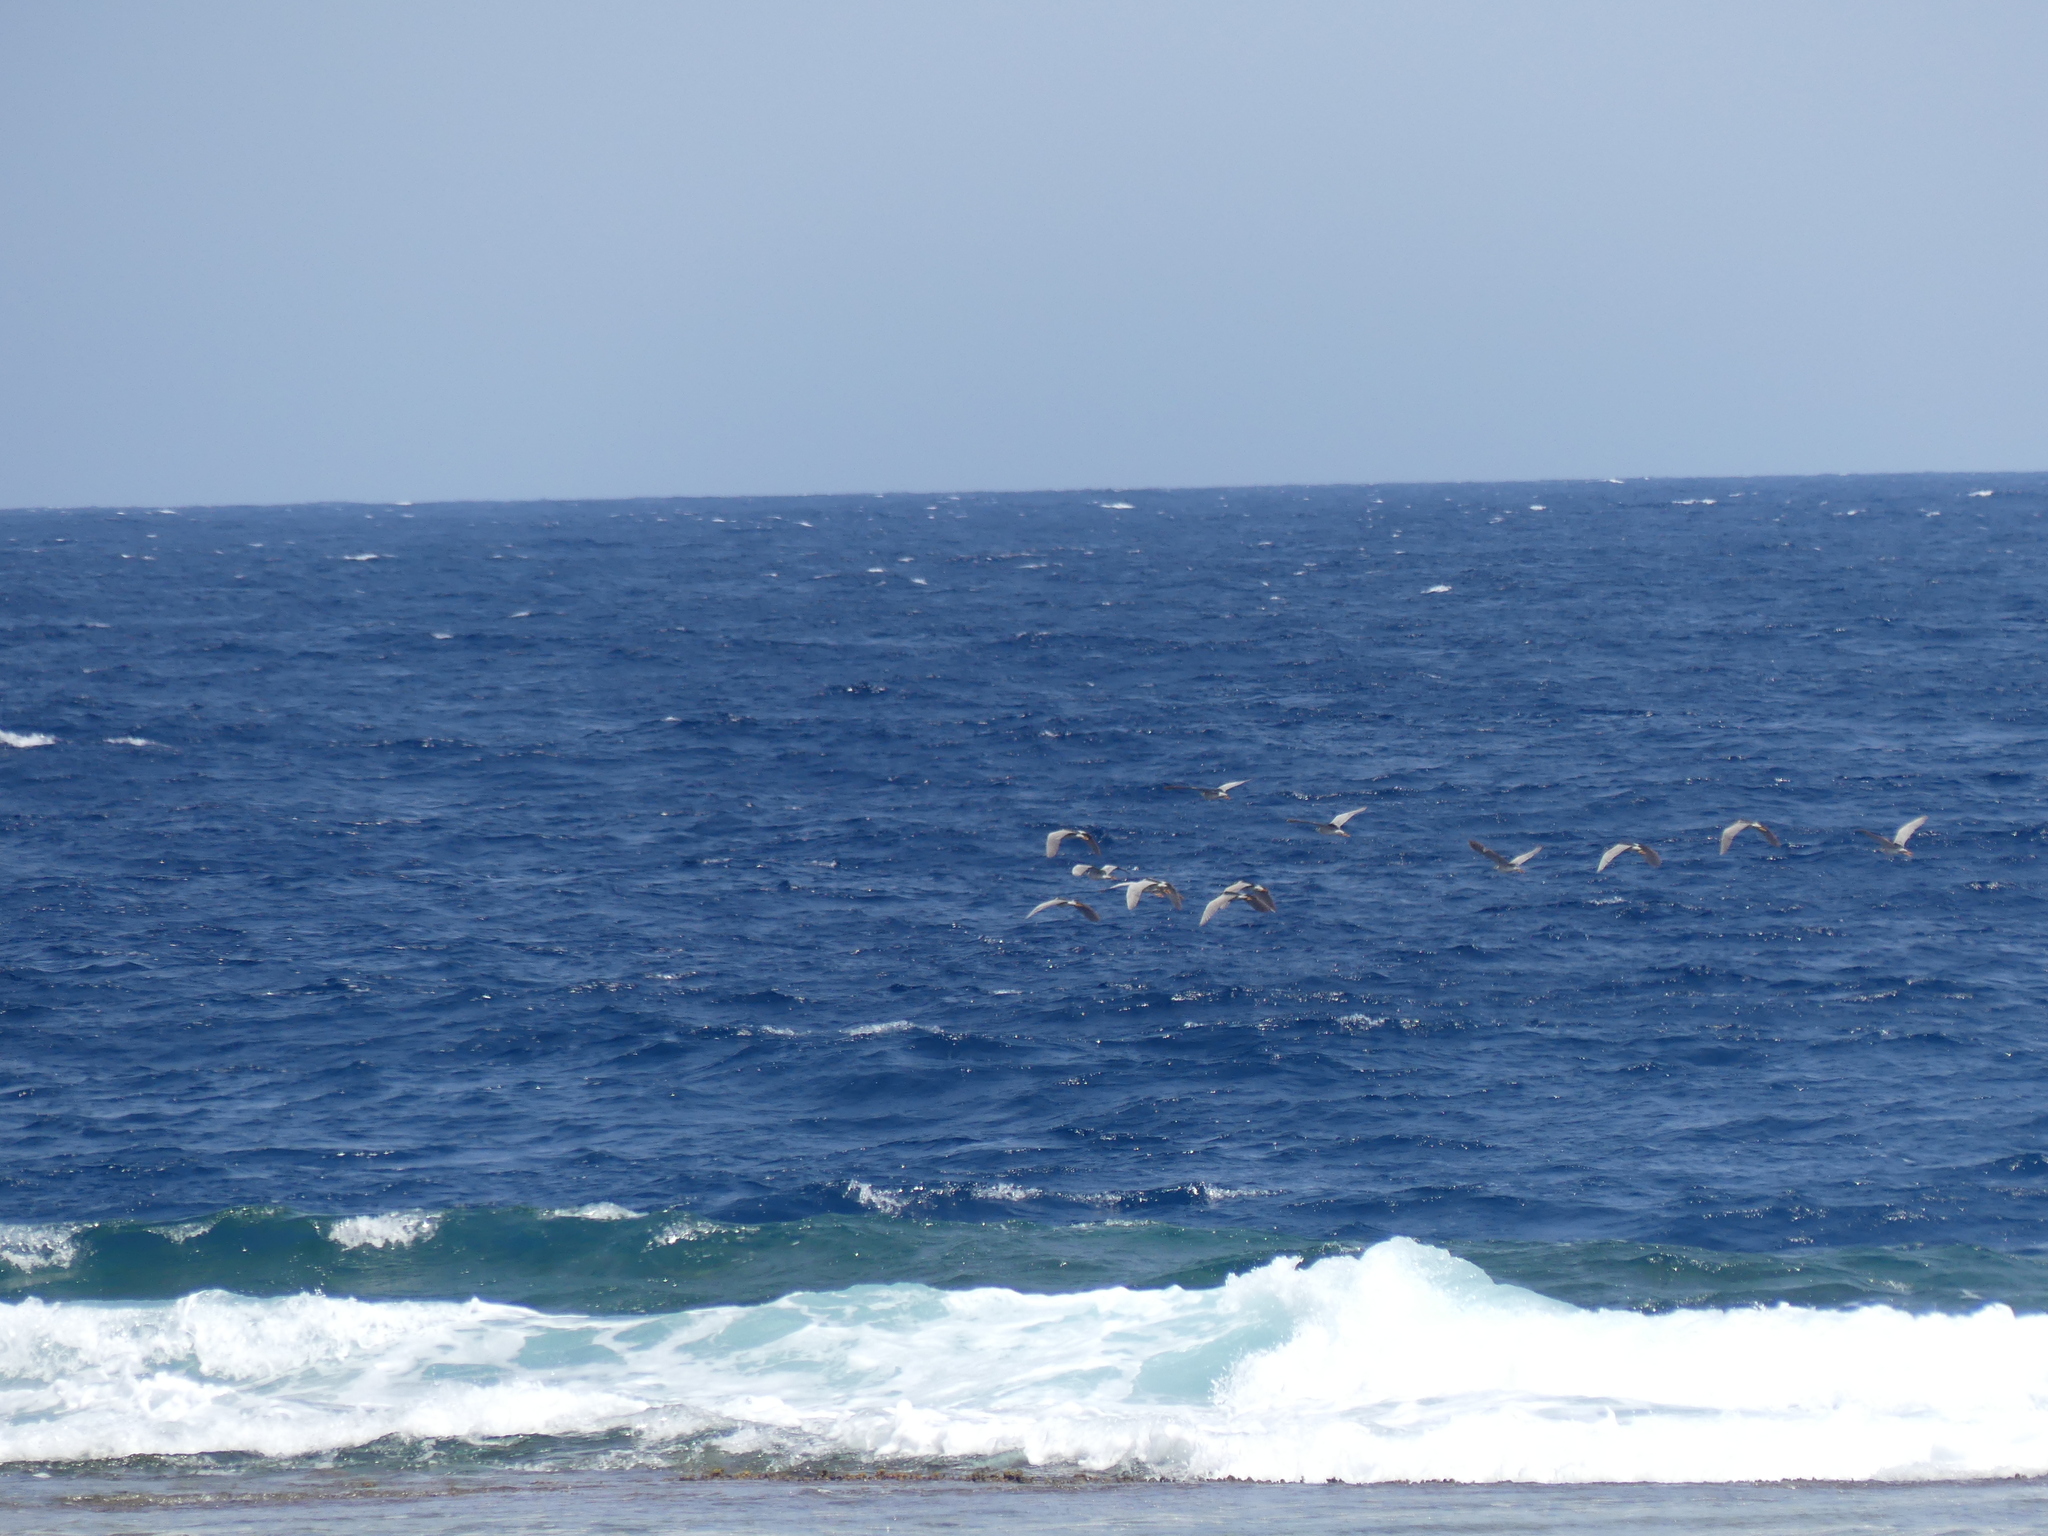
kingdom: Animalia
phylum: Chordata
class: Aves
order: Pelecaniformes
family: Ardeidae
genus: Nycticorax
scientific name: Nycticorax nycticorax
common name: Black-crowned night heron
